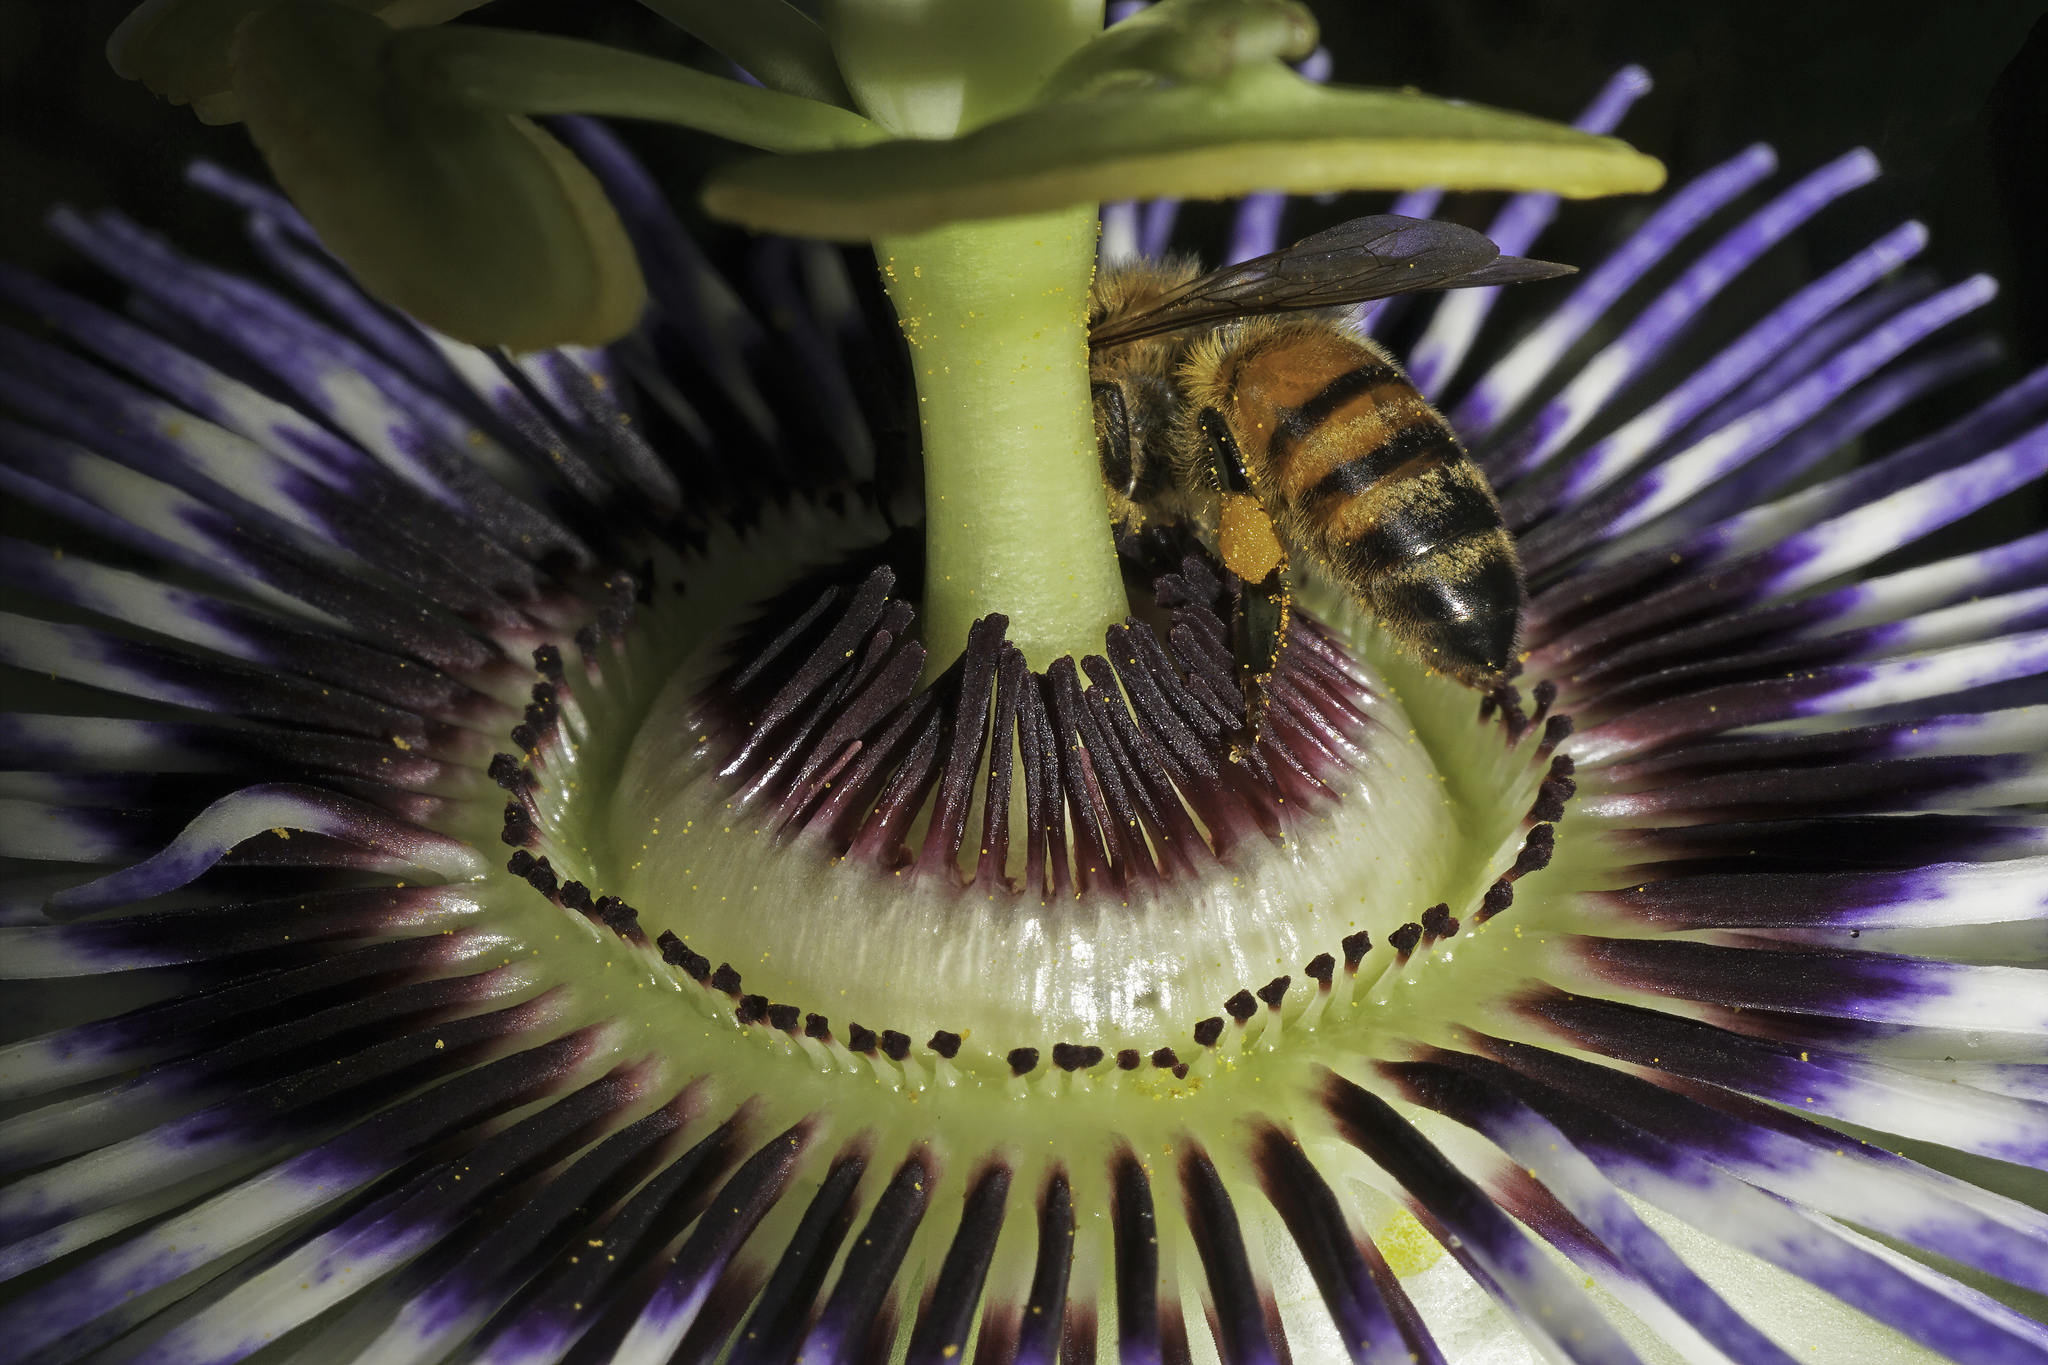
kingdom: Animalia
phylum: Arthropoda
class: Insecta
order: Hymenoptera
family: Apidae
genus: Apis
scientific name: Apis mellifera
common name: Honey bee
